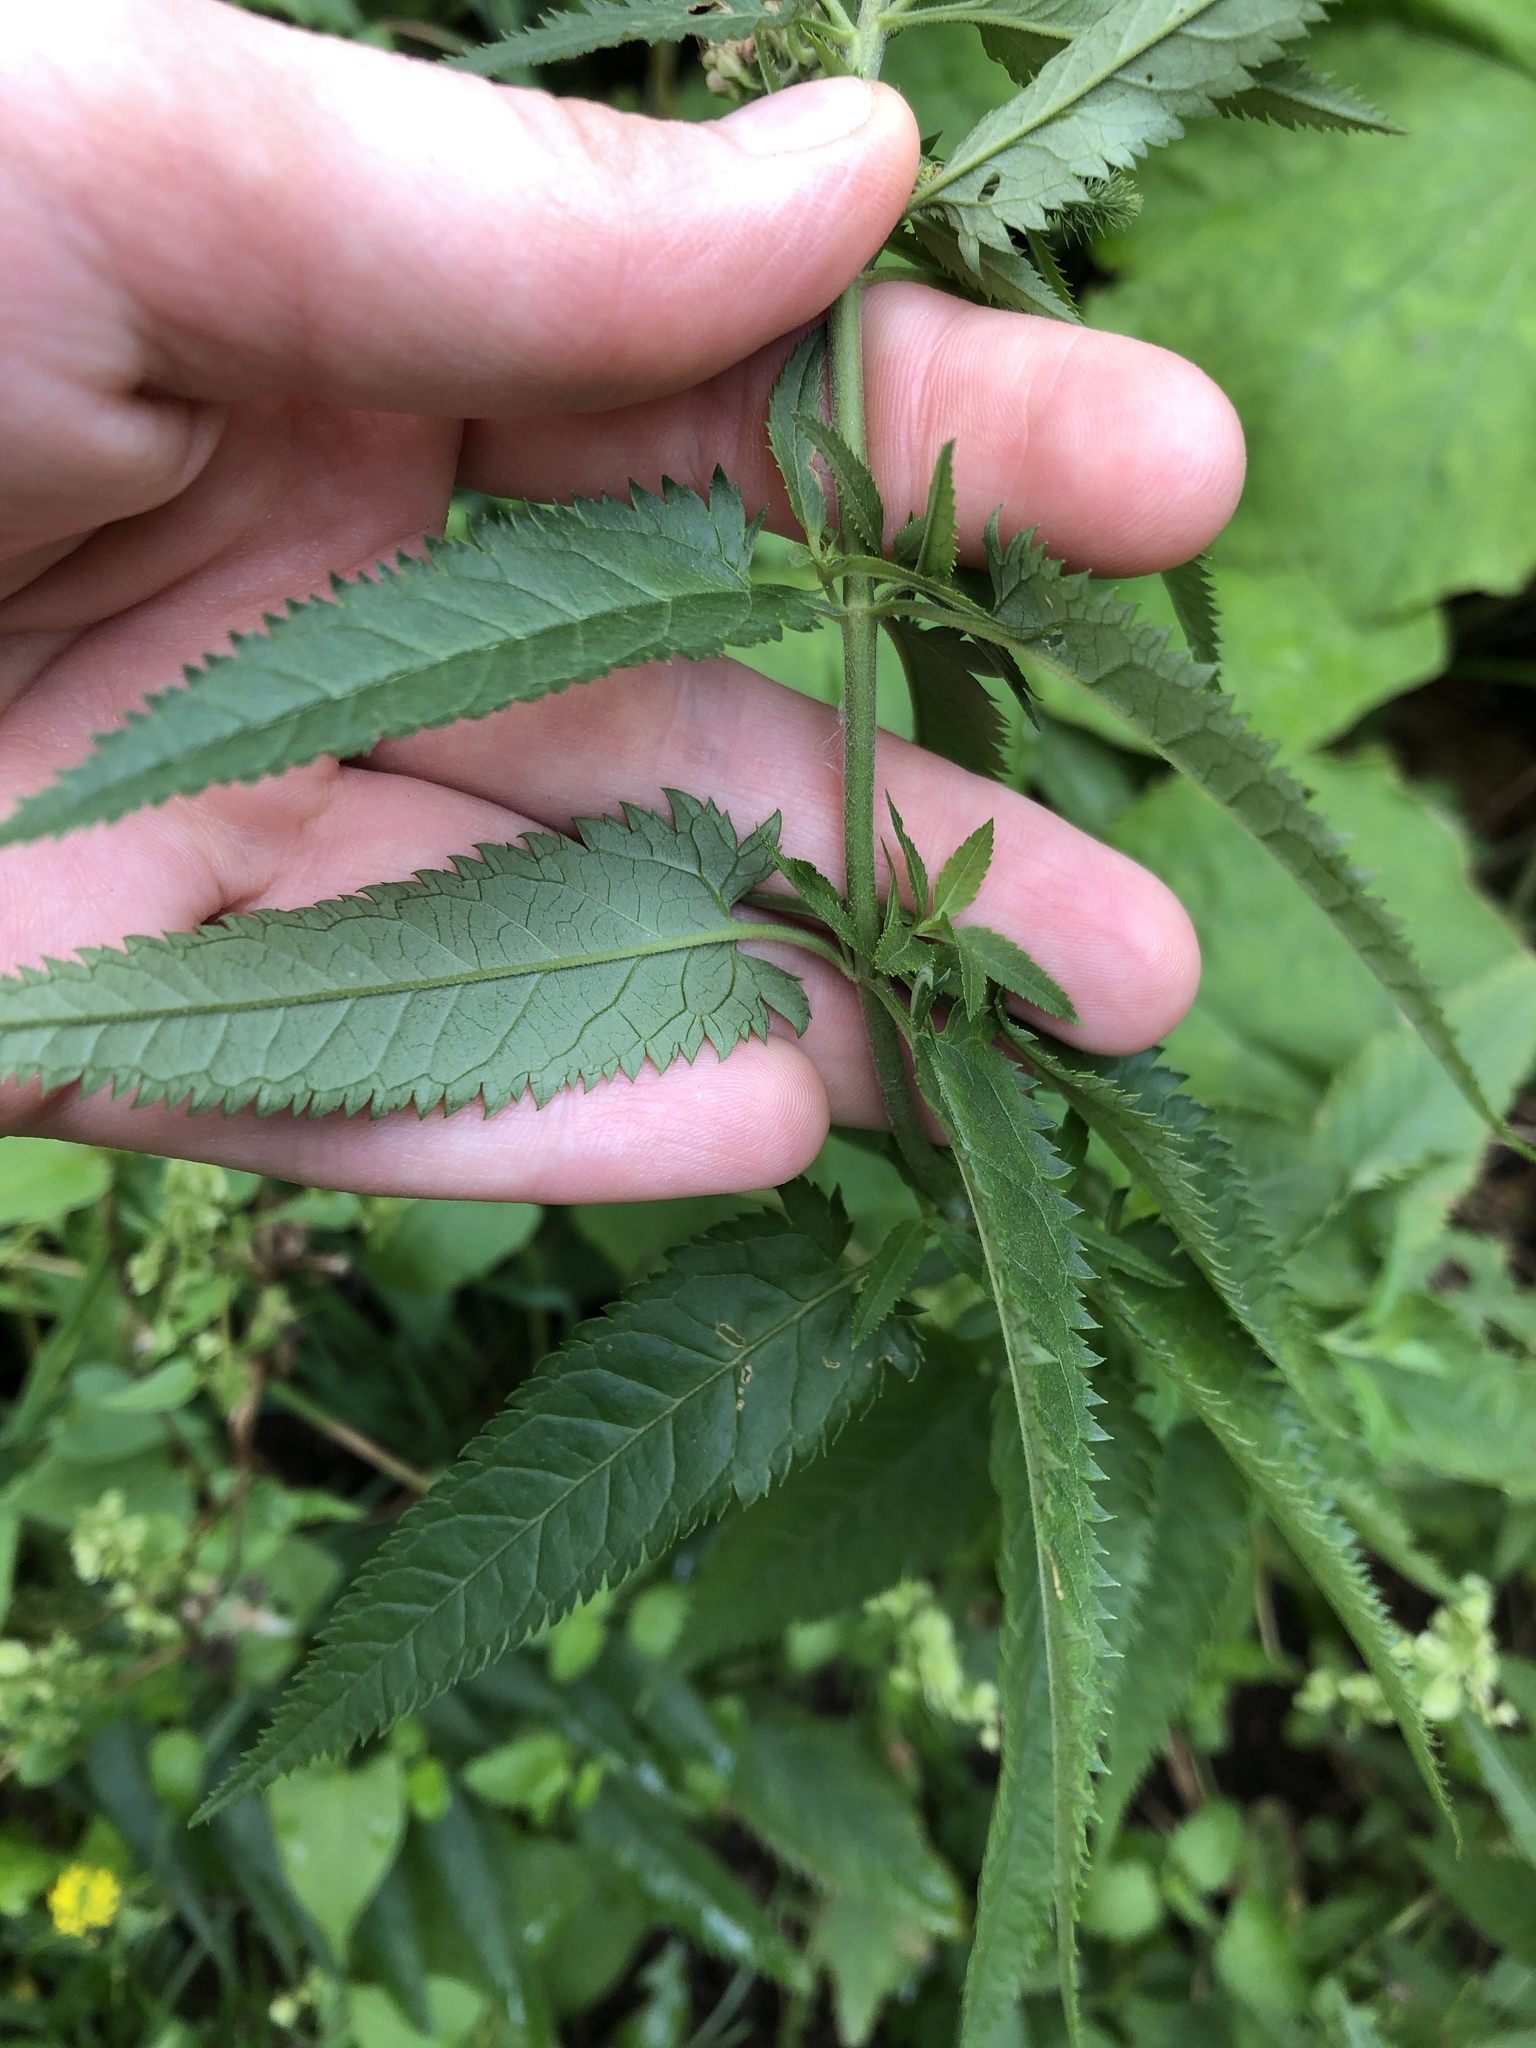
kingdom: Plantae
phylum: Tracheophyta
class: Magnoliopsida
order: Lamiales
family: Plantaginaceae
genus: Veronica
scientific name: Veronica longifolia
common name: Garden speedwell
